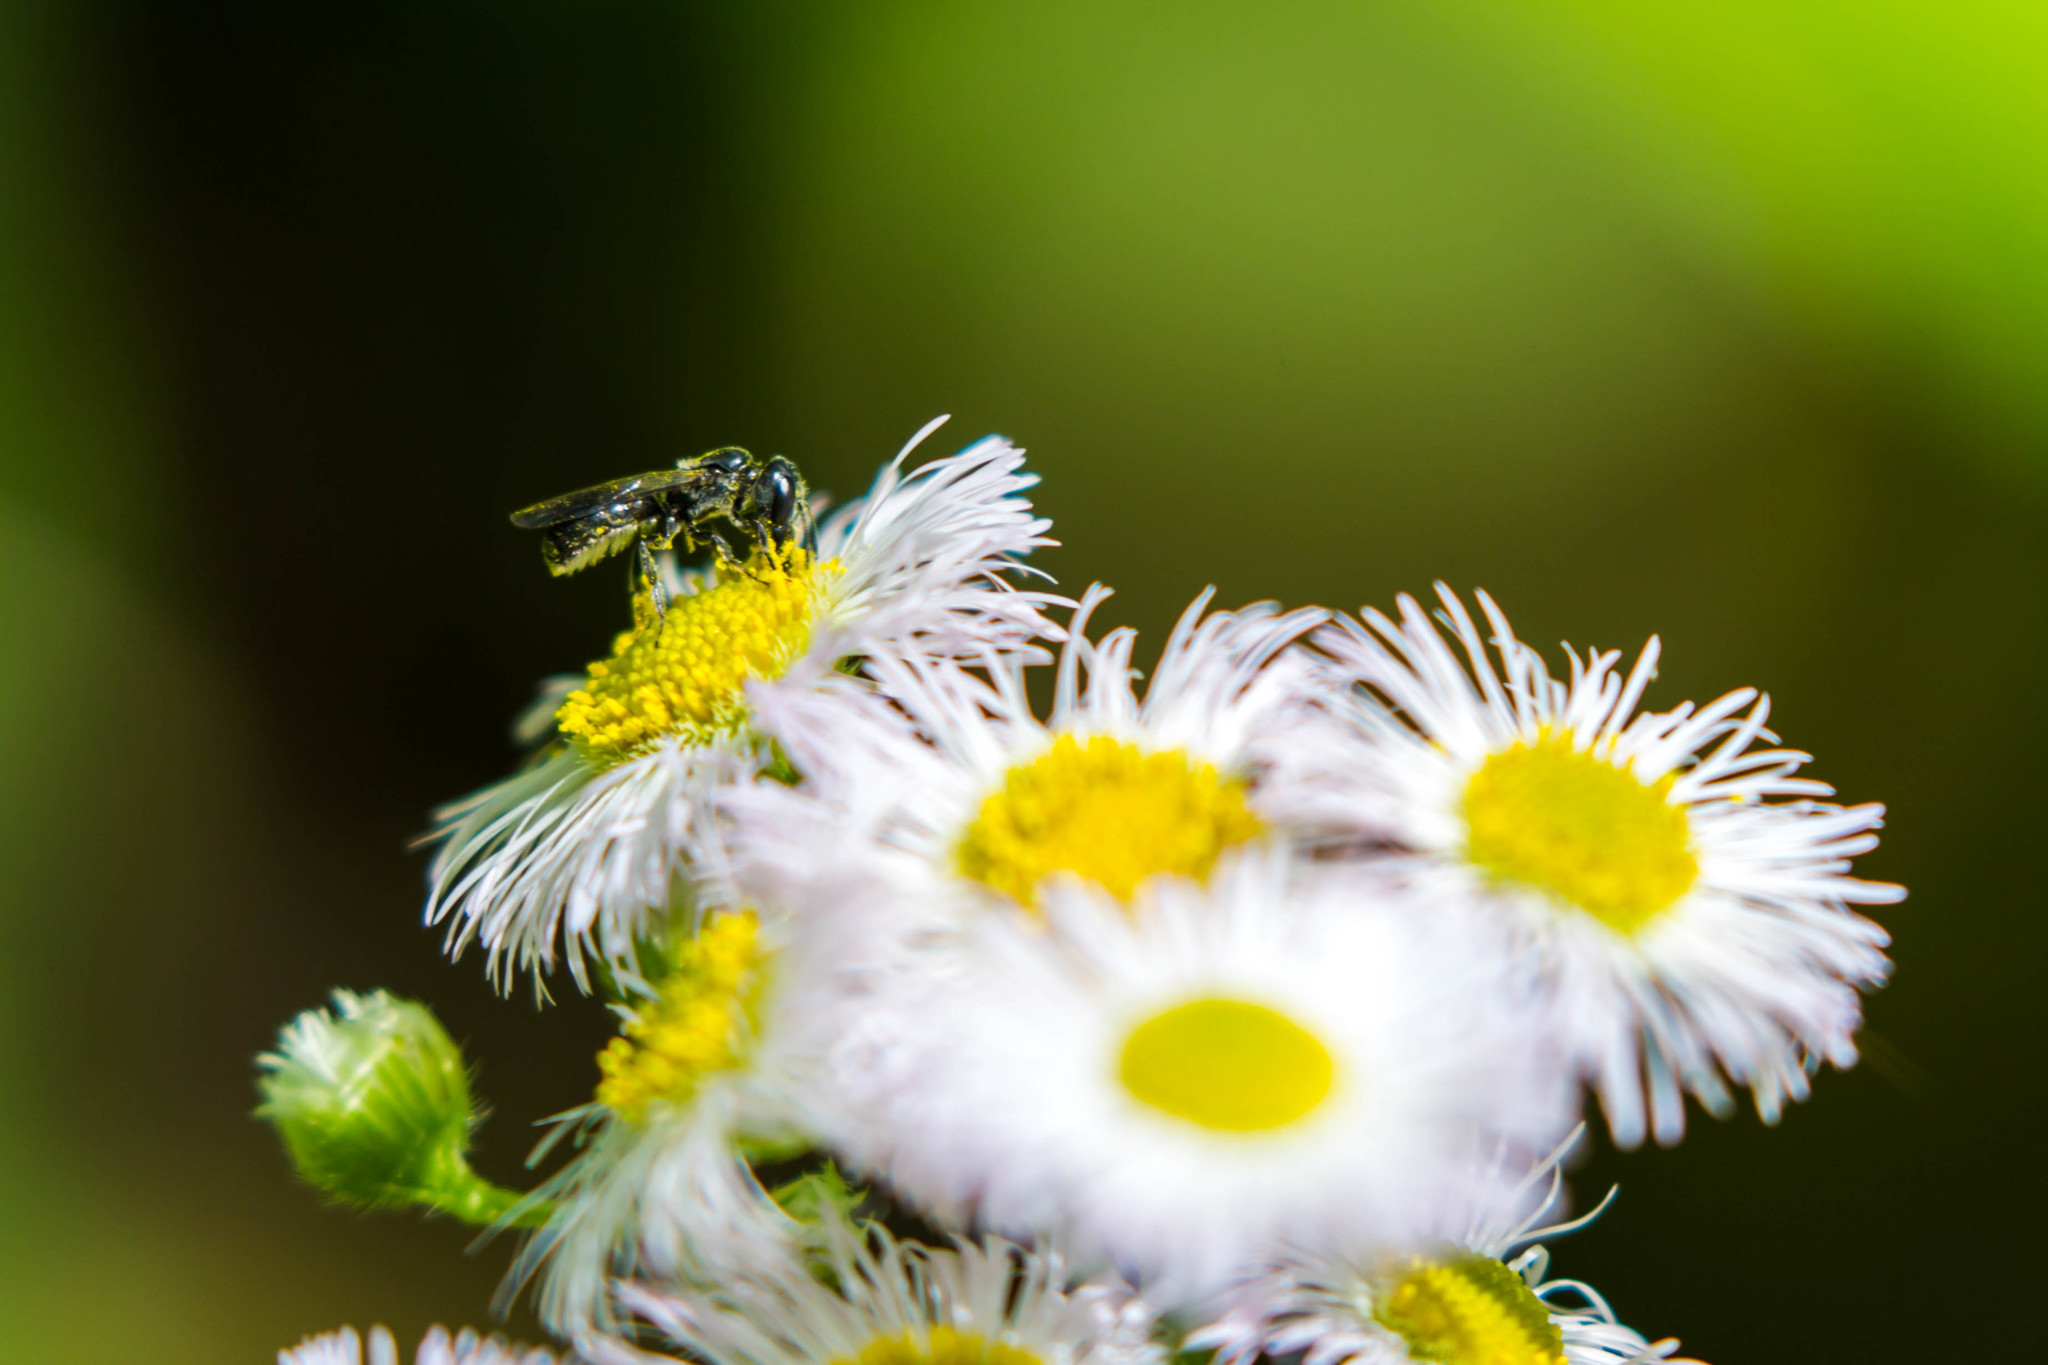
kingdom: Animalia
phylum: Arthropoda
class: Insecta
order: Hymenoptera
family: Megachilidae
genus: Chelostoma
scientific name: Chelostoma philadelphi
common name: Mock-orange scissor bee
